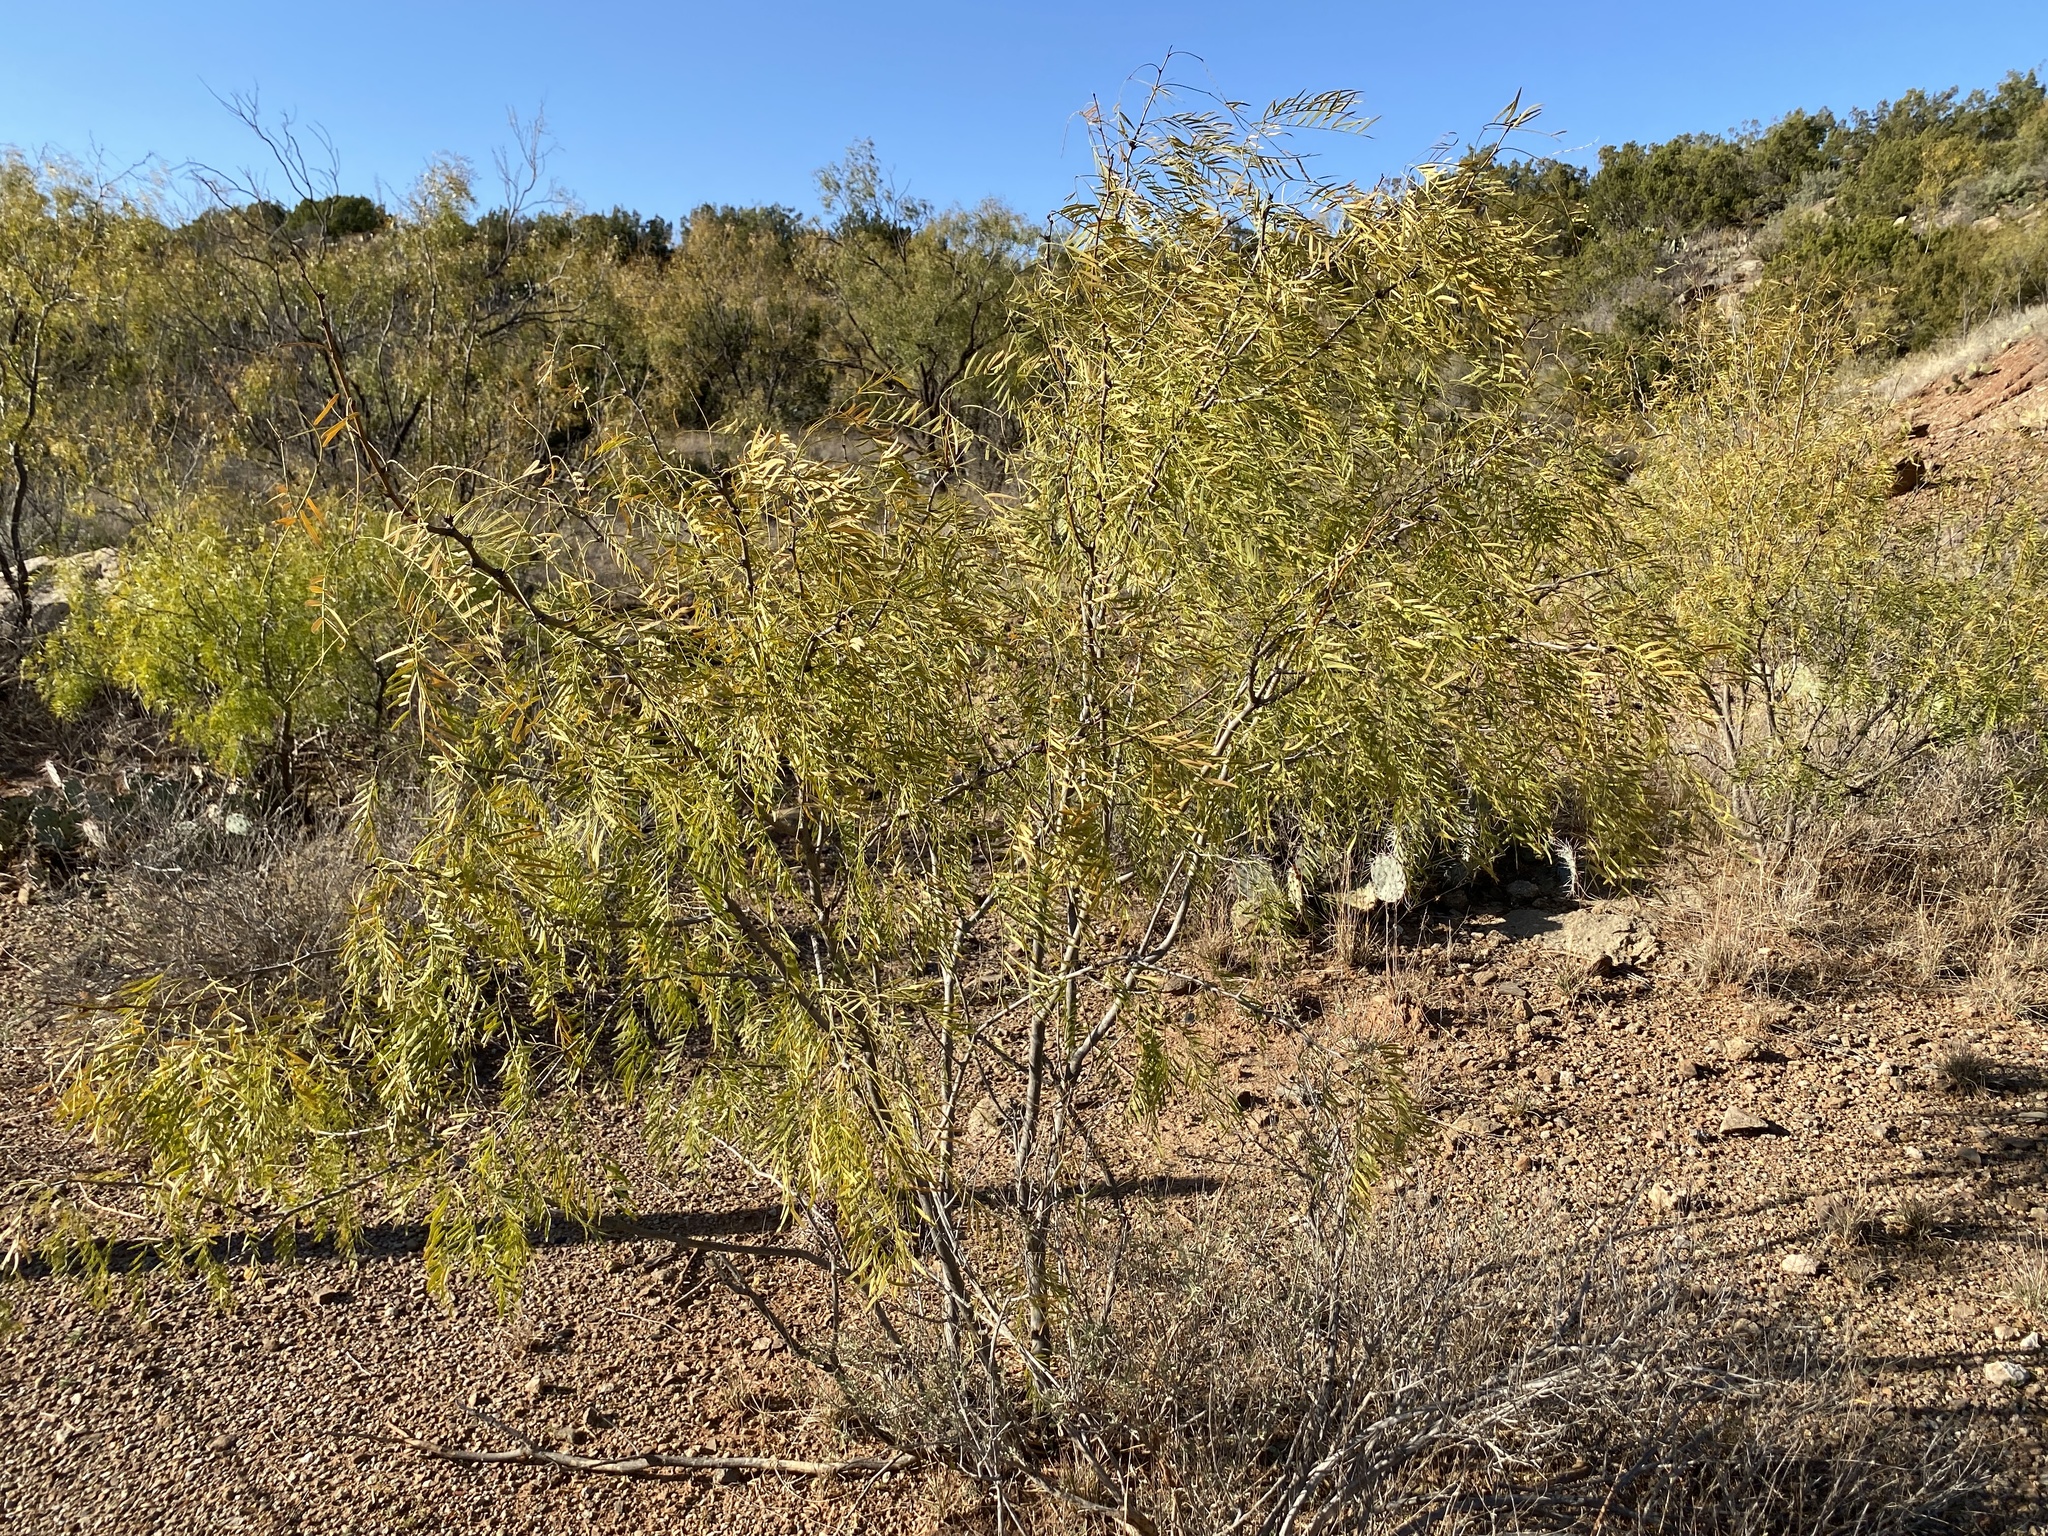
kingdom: Plantae
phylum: Tracheophyta
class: Magnoliopsida
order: Fabales
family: Fabaceae
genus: Prosopis
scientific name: Prosopis glandulosa
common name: Honey mesquite
